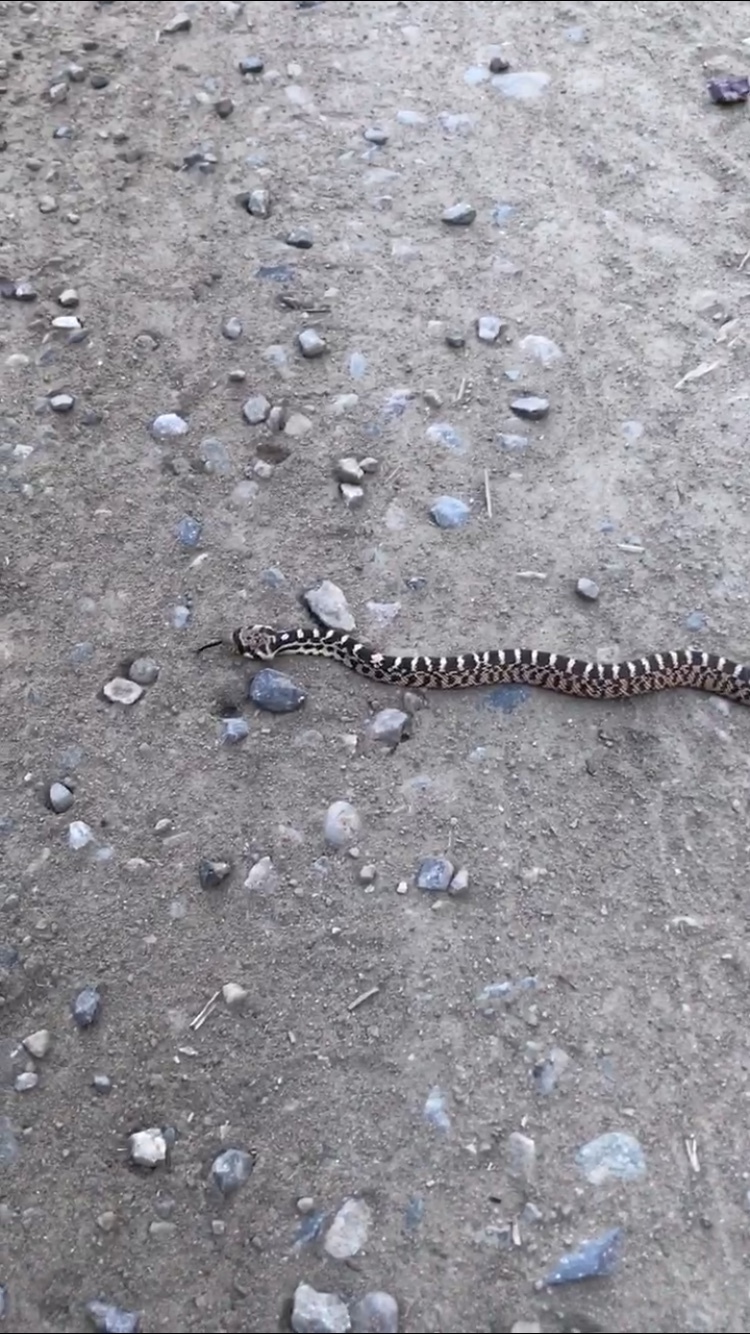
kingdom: Animalia
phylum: Chordata
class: Squamata
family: Colubridae
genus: Pituophis
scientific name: Pituophis catenifer
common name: Gopher snake
